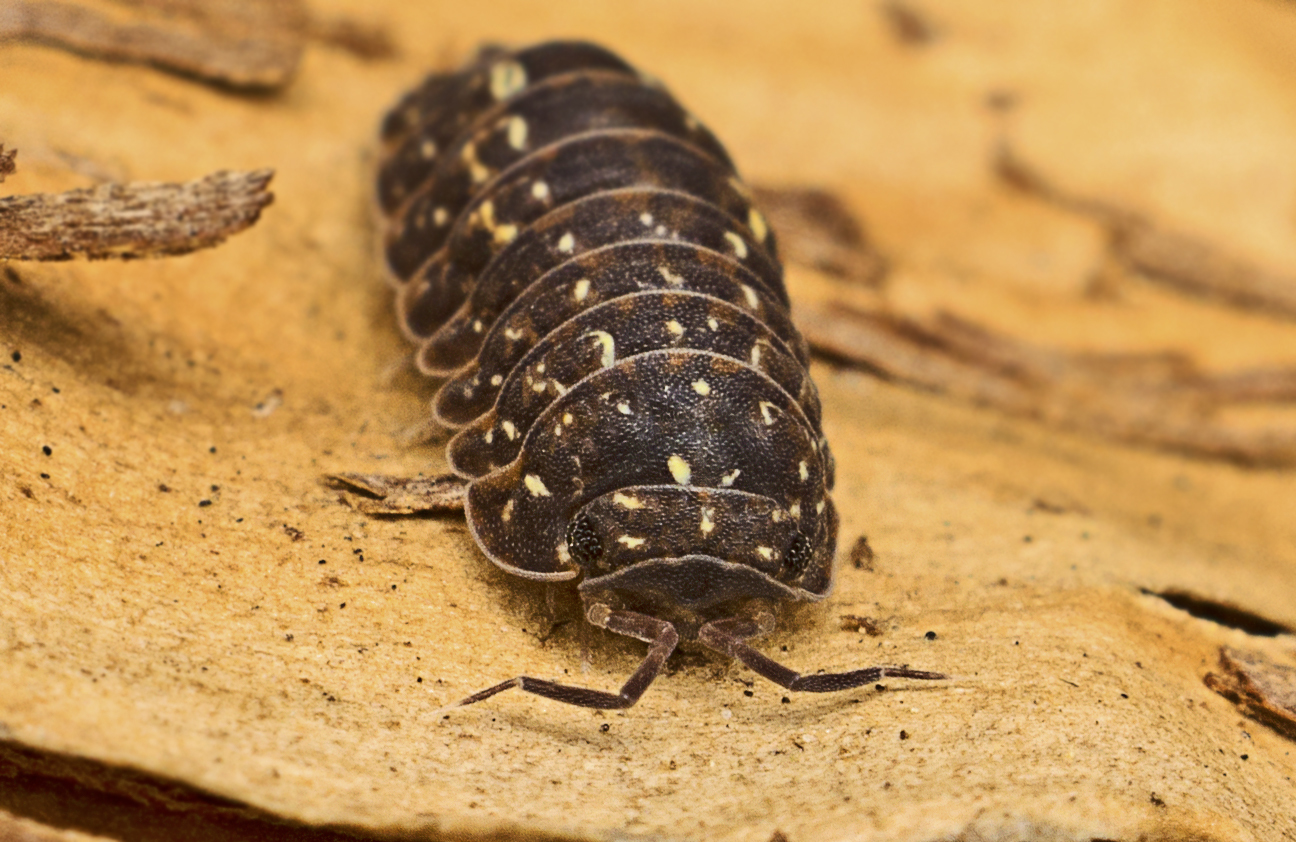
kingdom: Animalia
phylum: Arthropoda
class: Malacostraca
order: Isopoda
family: Armadillidae
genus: Cubaris
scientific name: Cubaris rufonigra
